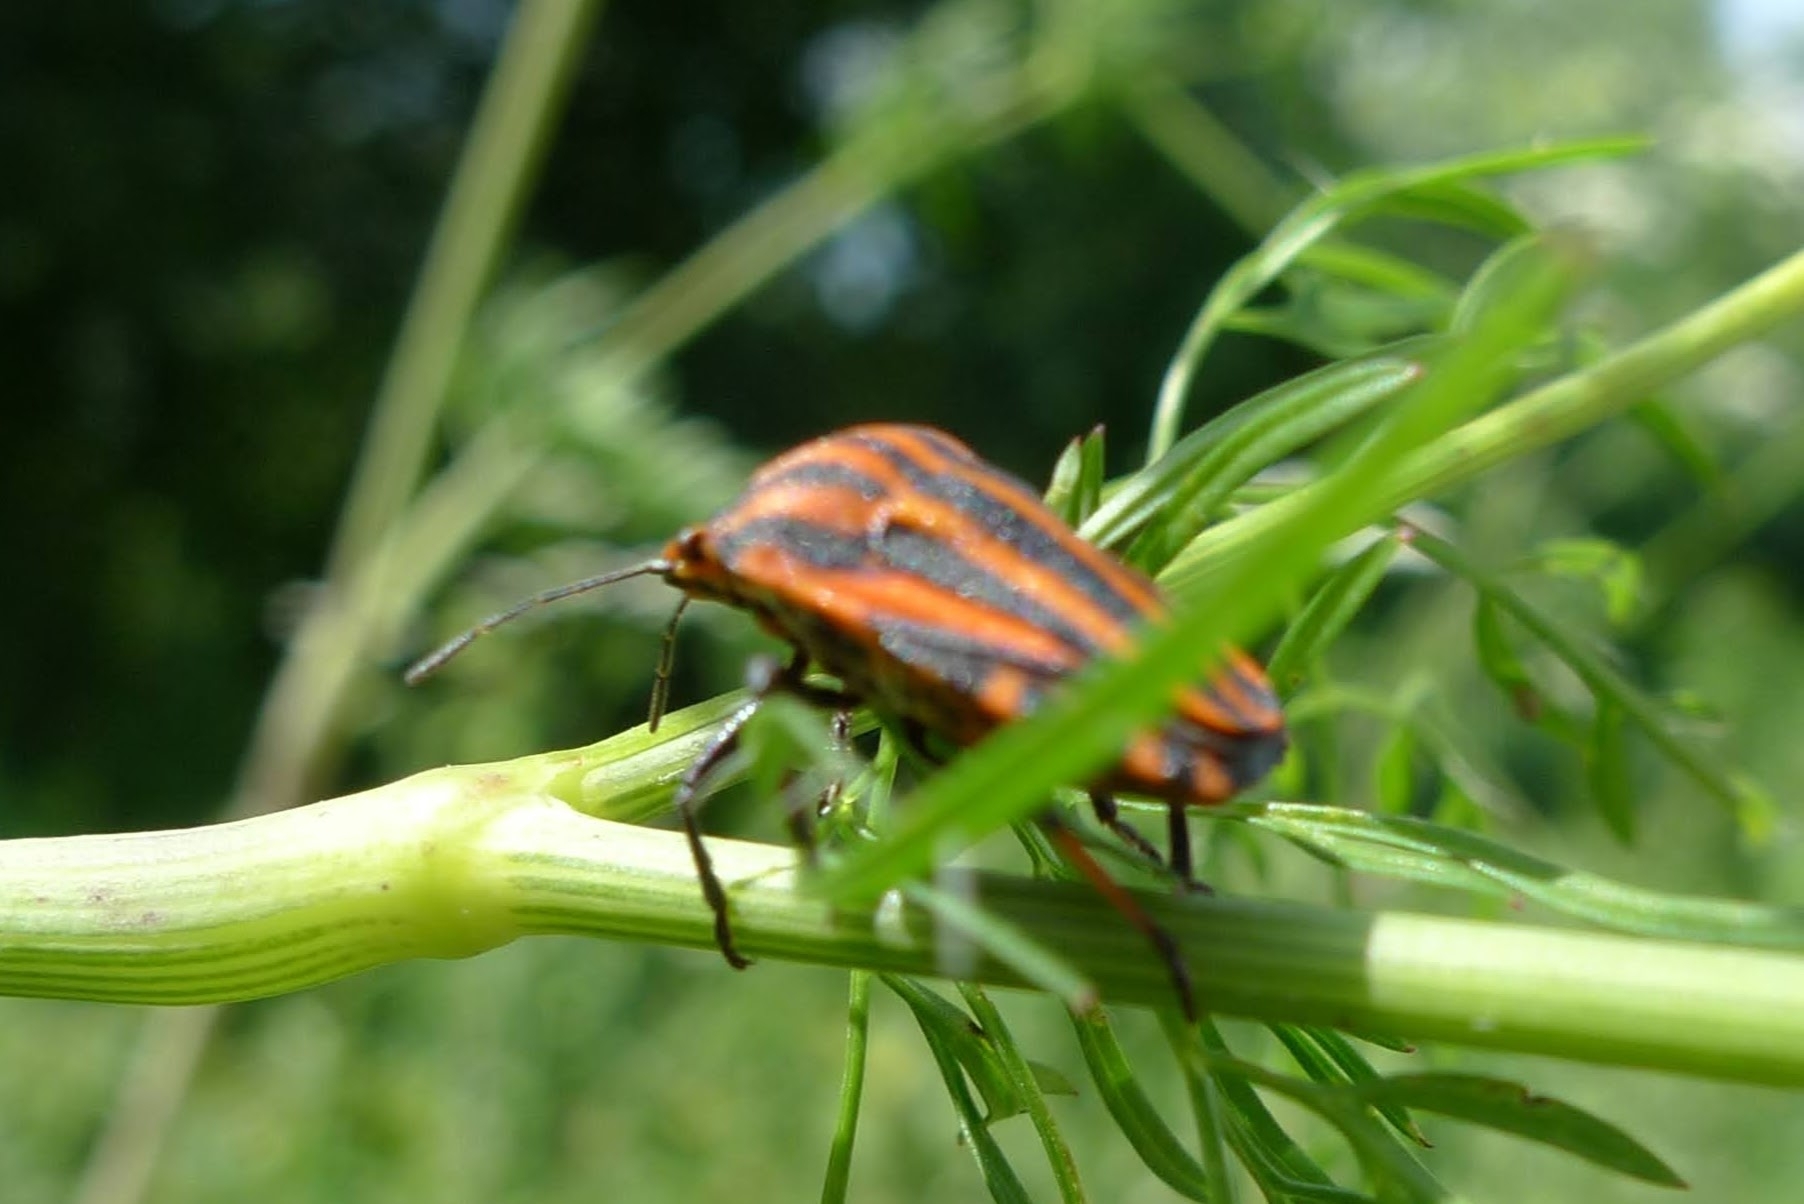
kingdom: Animalia
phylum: Arthropoda
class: Insecta
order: Hemiptera
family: Pentatomidae
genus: Graphosoma
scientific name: Graphosoma italicum
